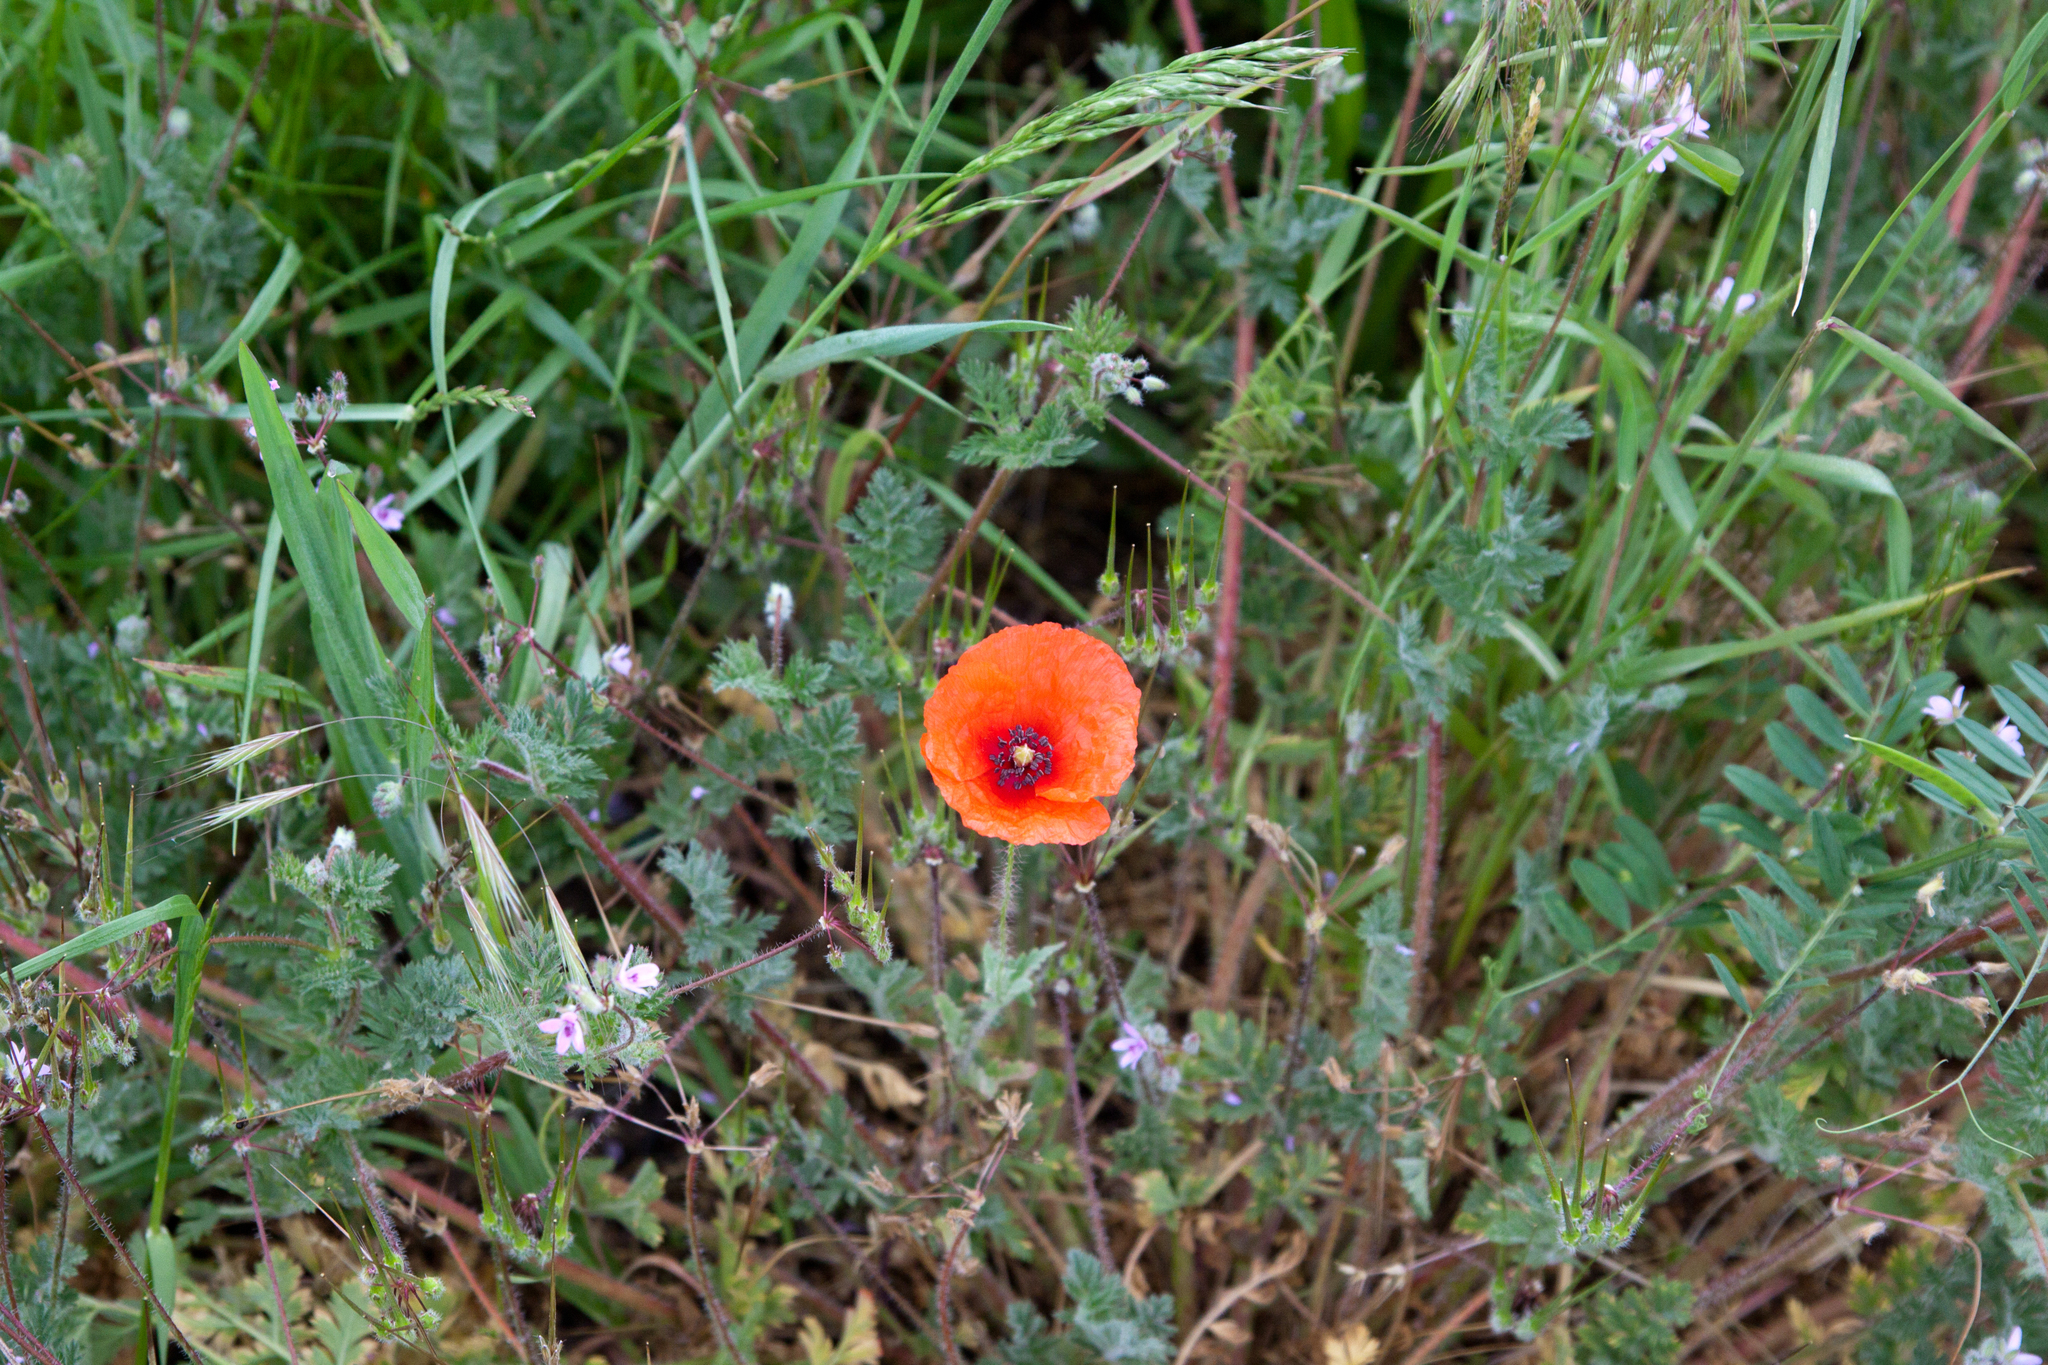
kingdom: Plantae
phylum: Tracheophyta
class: Magnoliopsida
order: Ranunculales
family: Papaveraceae
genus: Papaver
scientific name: Papaver rhoeas
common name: Corn poppy
